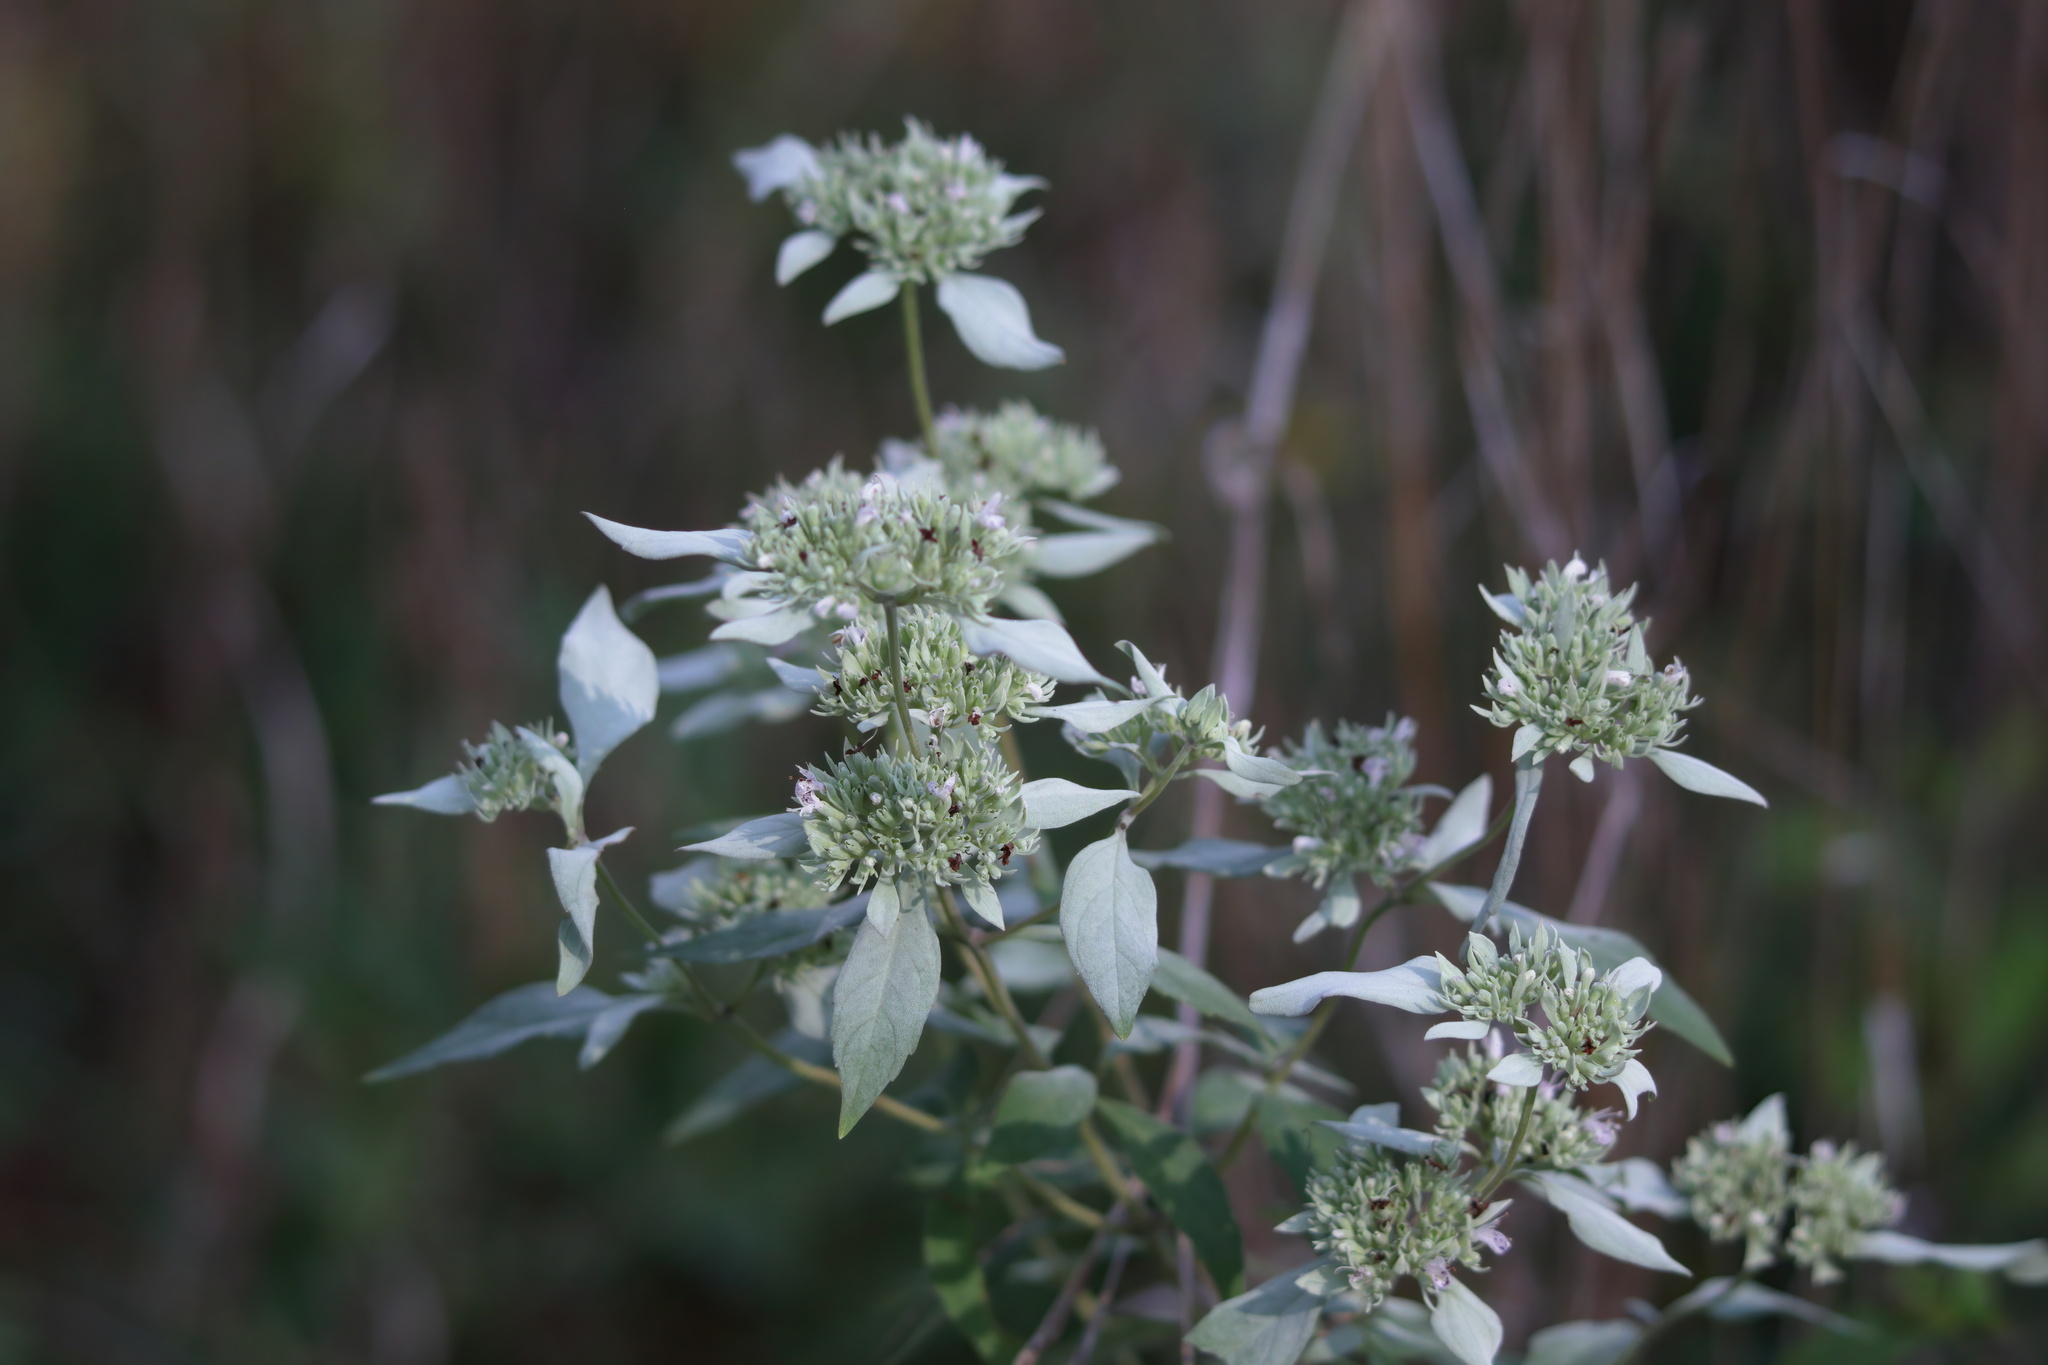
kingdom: Plantae
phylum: Tracheophyta
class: Magnoliopsida
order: Lamiales
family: Lamiaceae
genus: Pycnanthemum
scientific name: Pycnanthemum albescens
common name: White-leaf mountain-mint
